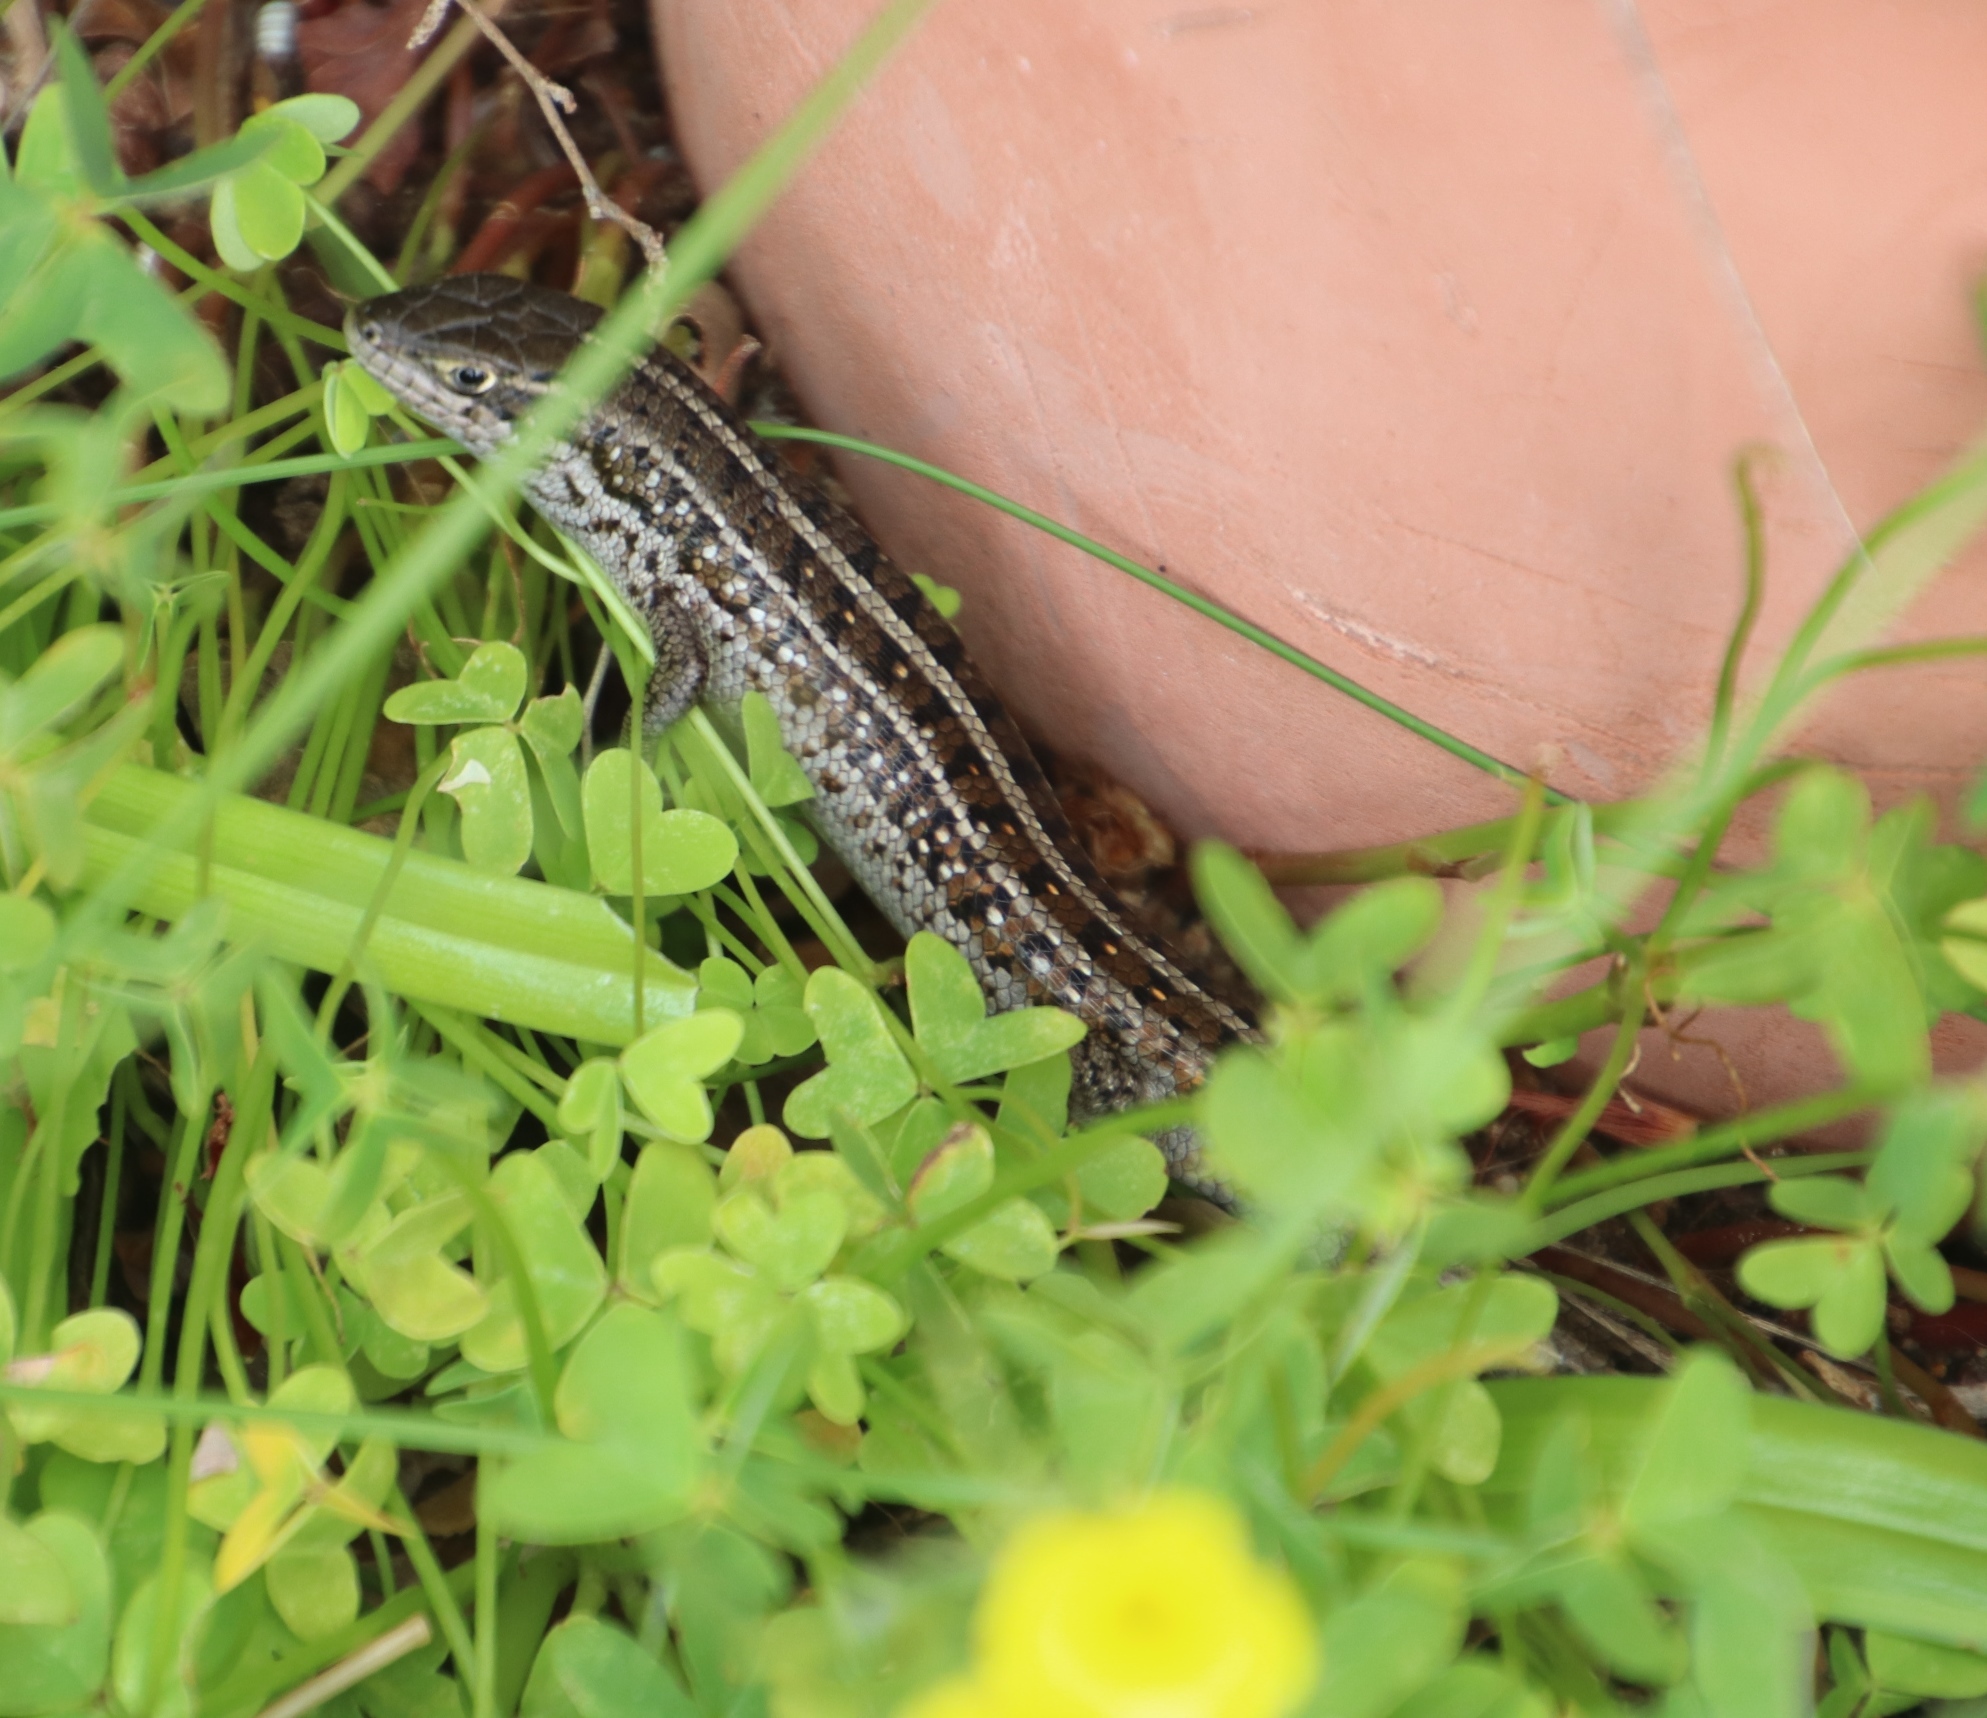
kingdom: Animalia
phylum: Chordata
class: Squamata
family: Scincidae
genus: Trachylepis
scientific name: Trachylepis capensis
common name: Cape skink
